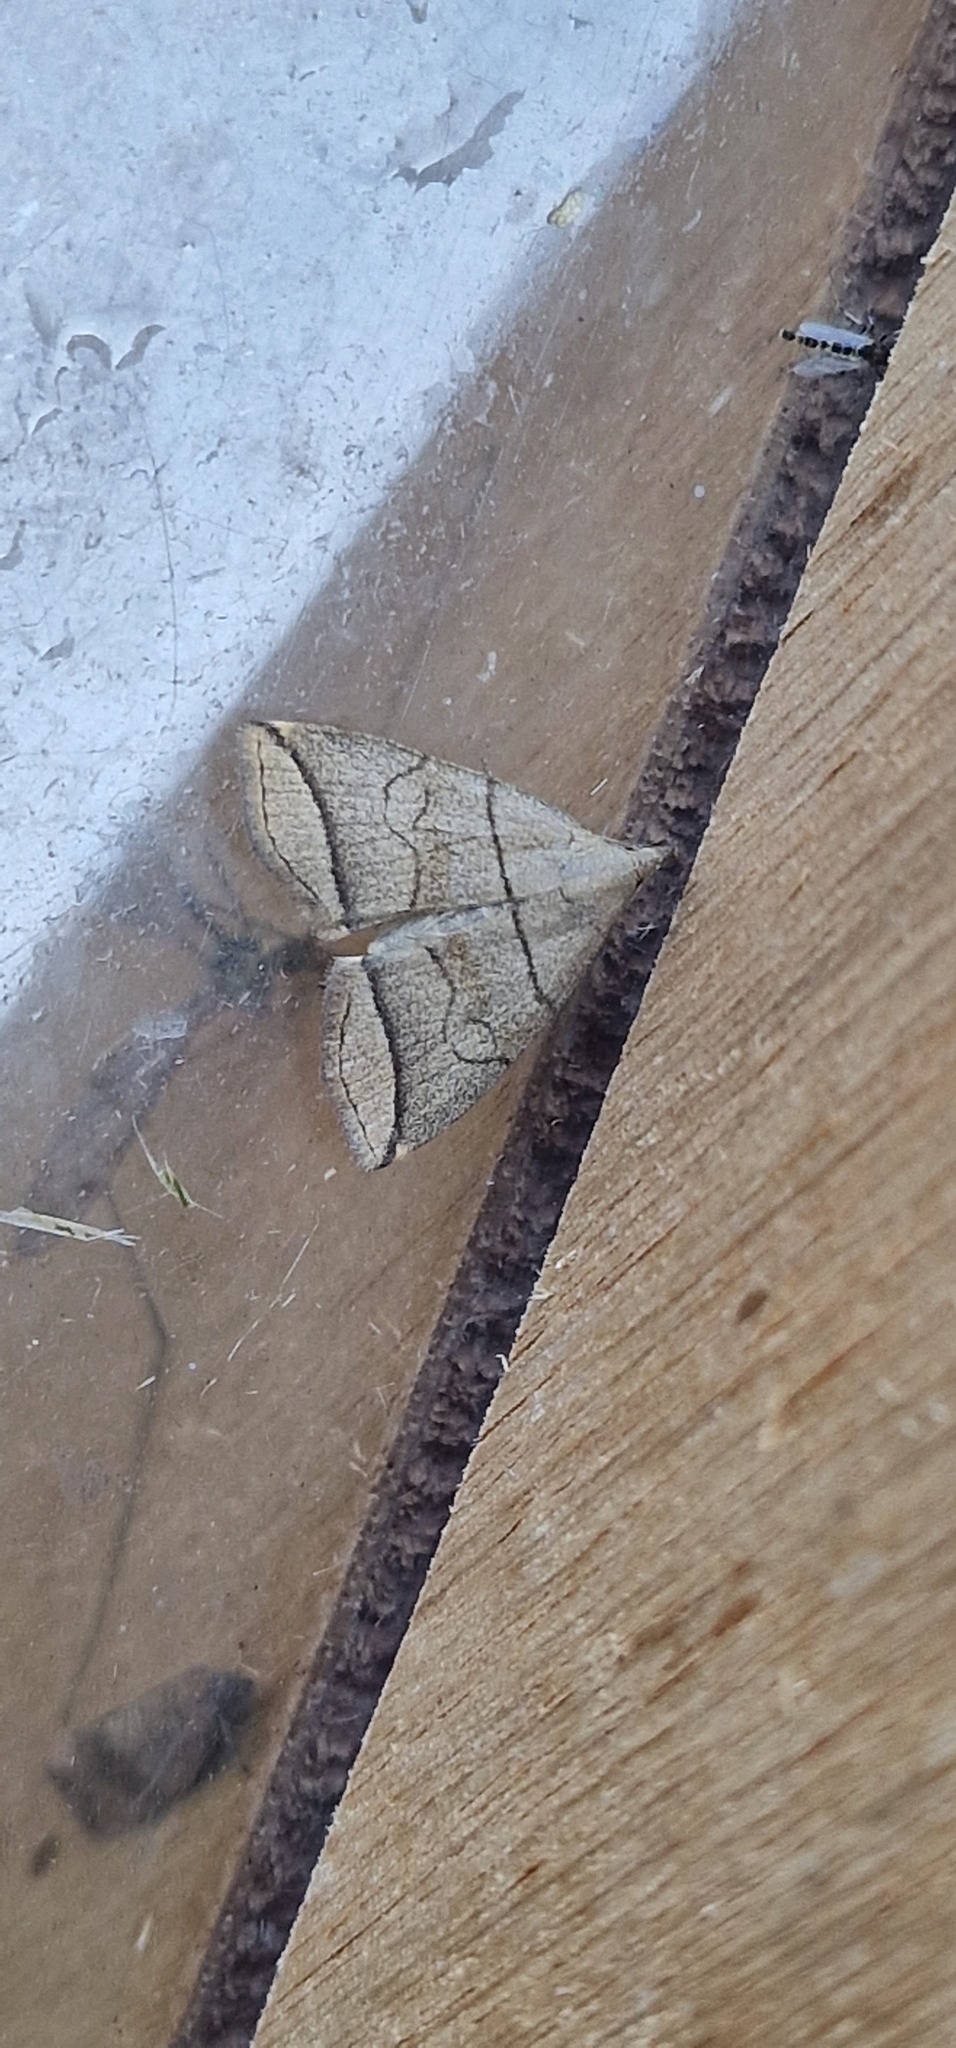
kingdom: Animalia
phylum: Arthropoda
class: Insecta
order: Lepidoptera
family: Erebidae
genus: Herminia
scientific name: Herminia grisealis
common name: Small fan-foot
